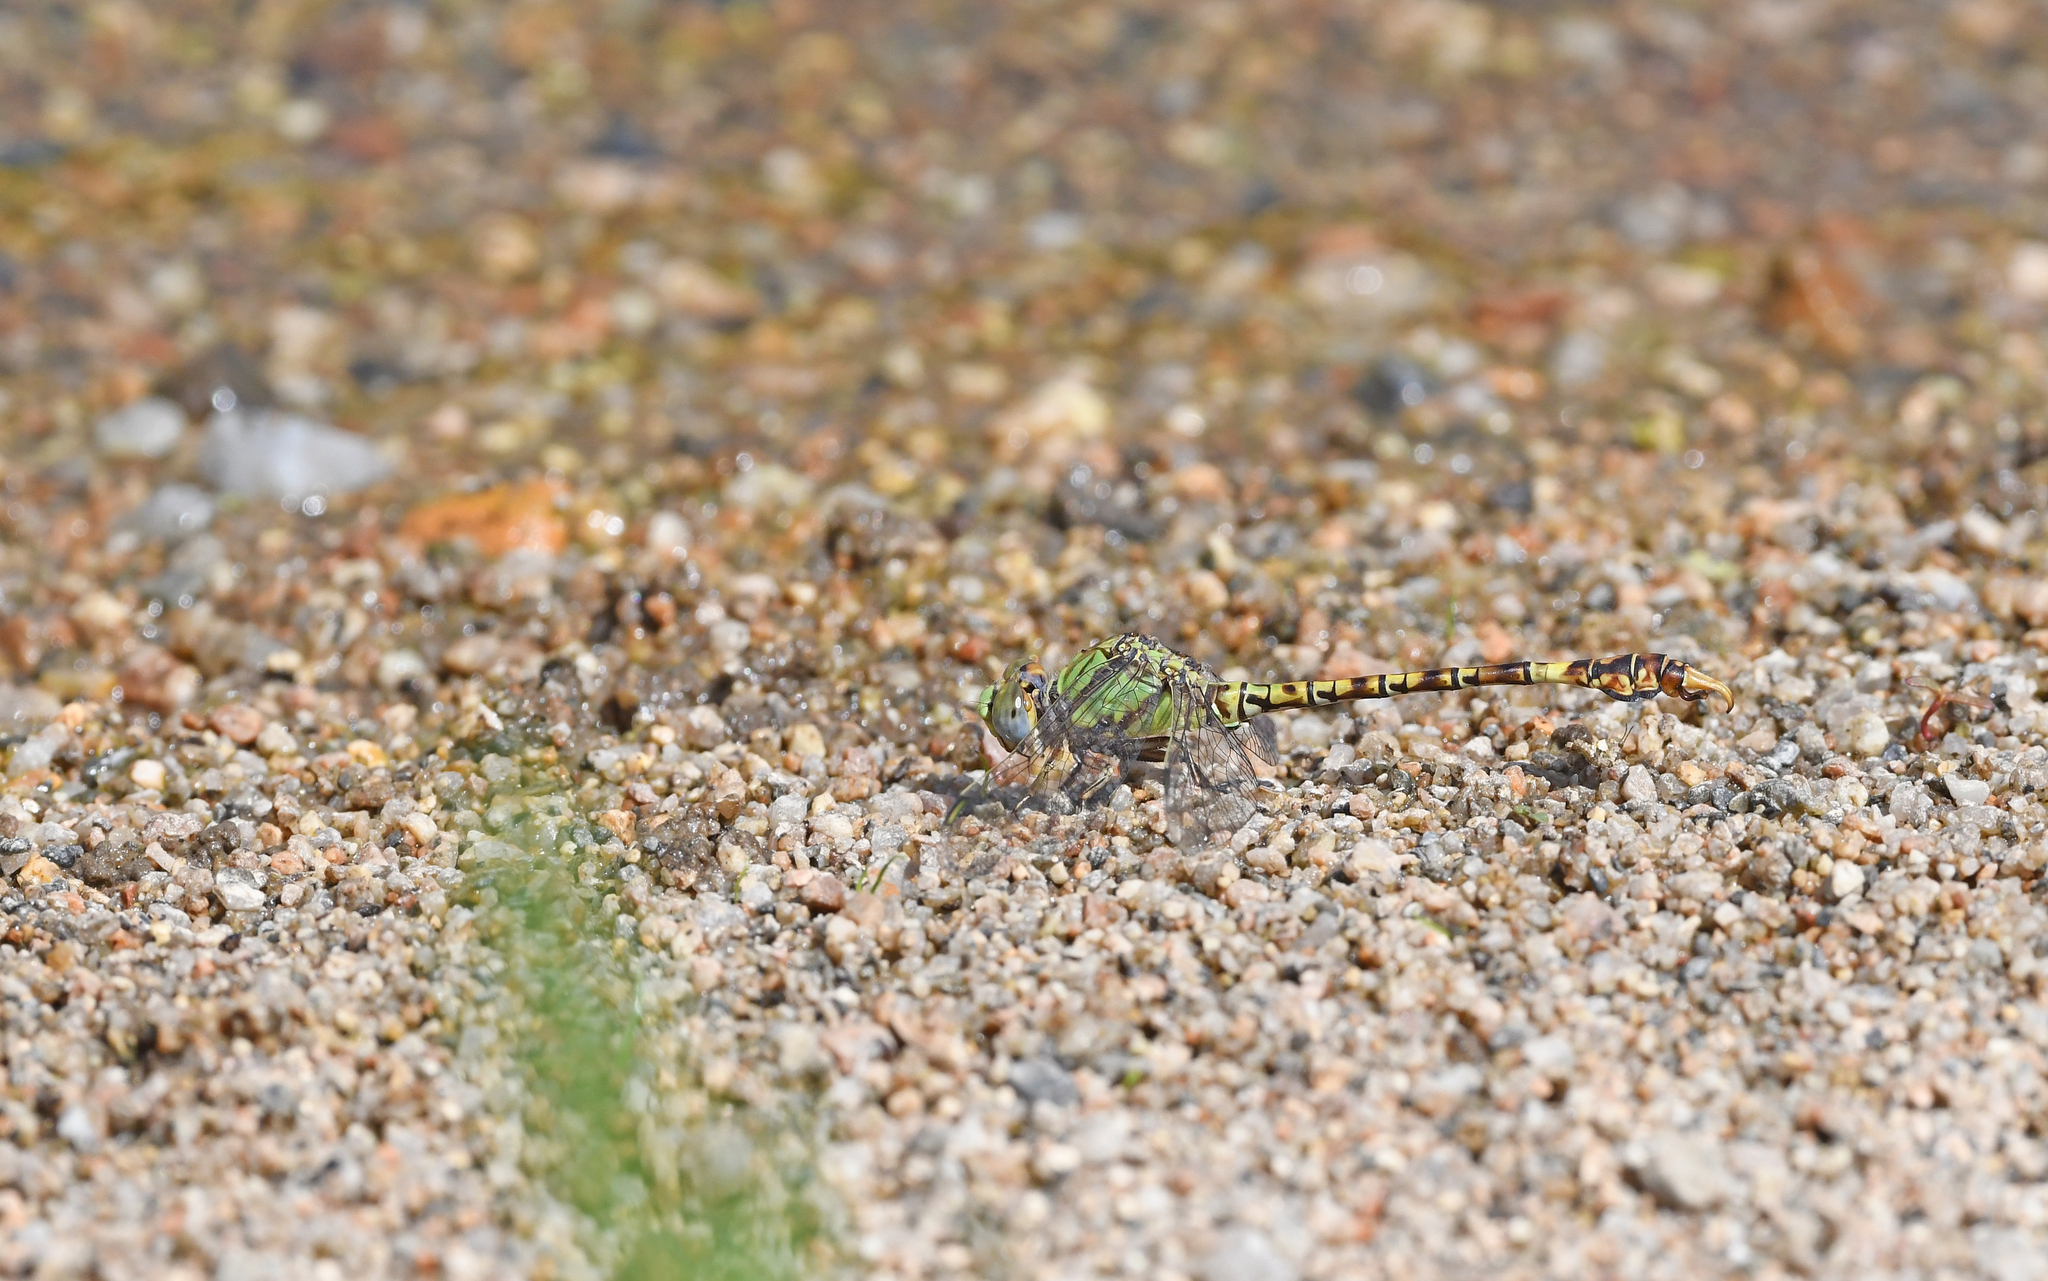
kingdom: Animalia
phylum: Arthropoda
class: Insecta
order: Odonata
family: Gomphidae
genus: Paragomphus
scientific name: Paragomphus genei
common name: Common hooktail
